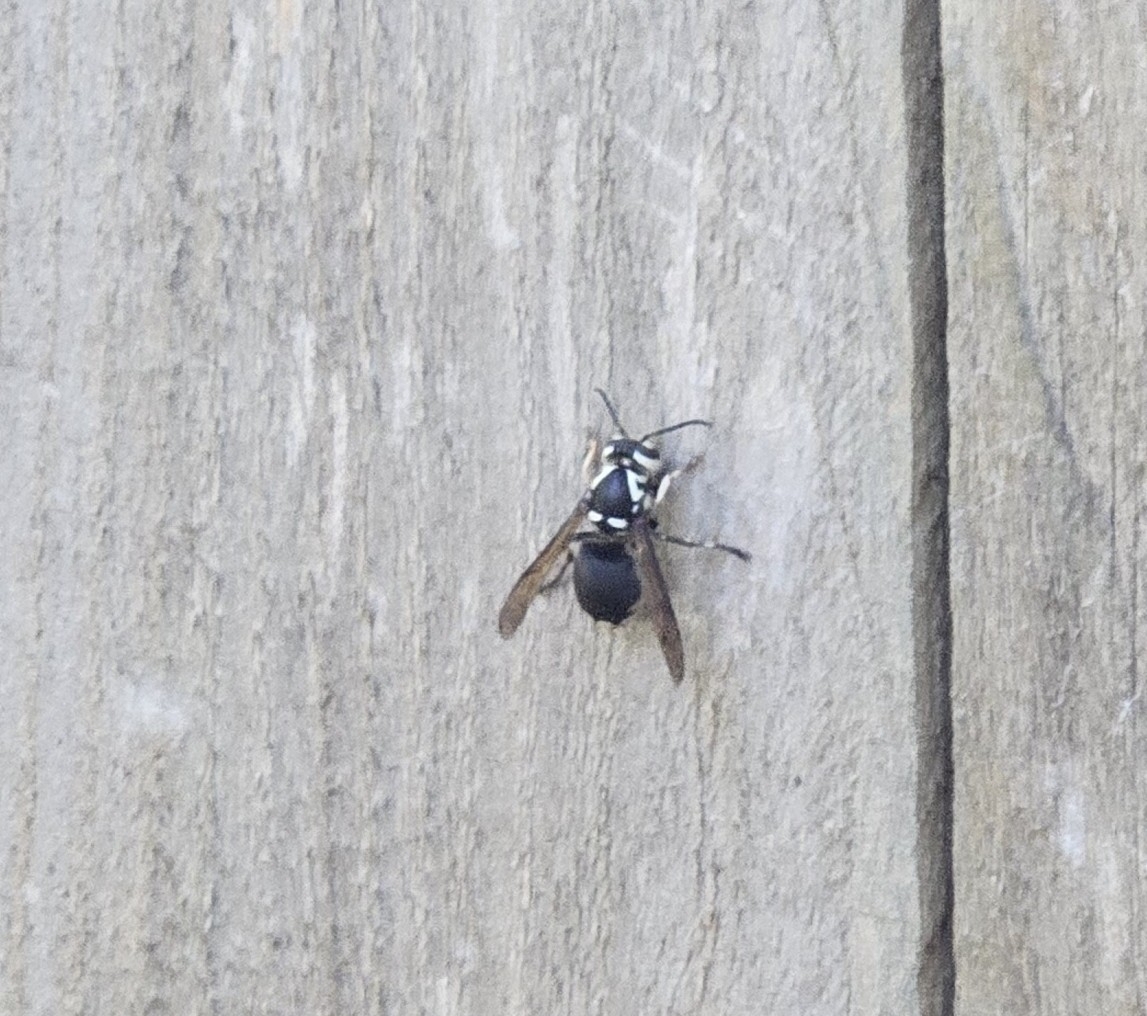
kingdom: Animalia
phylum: Arthropoda
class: Insecta
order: Hymenoptera
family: Vespidae
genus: Dolichovespula
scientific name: Dolichovespula maculata
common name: Bald-faced hornet
